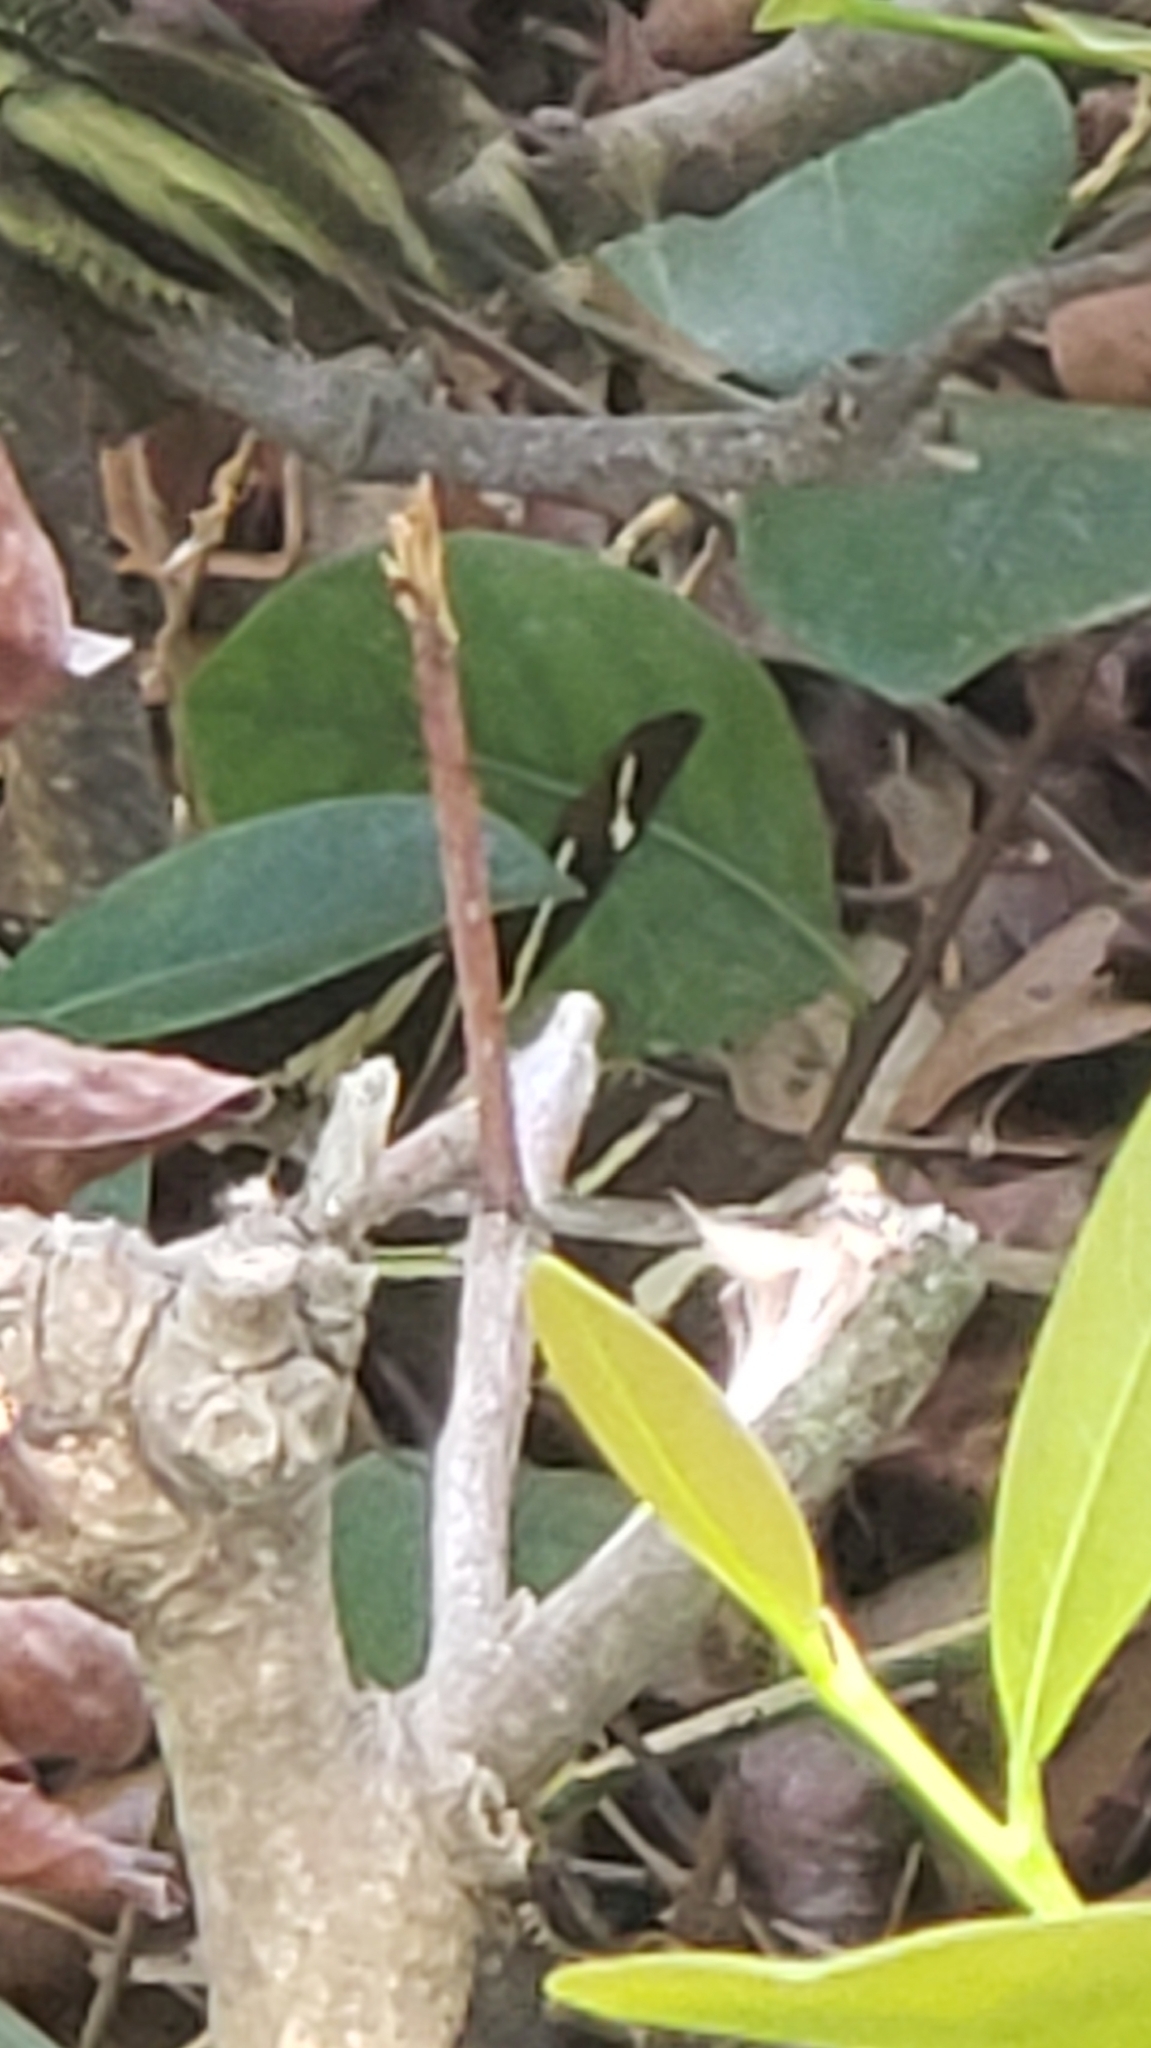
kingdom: Animalia
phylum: Arthropoda
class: Insecta
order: Lepidoptera
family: Nymphalidae
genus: Heliconius
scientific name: Heliconius charithonia
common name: Zebra long wing
